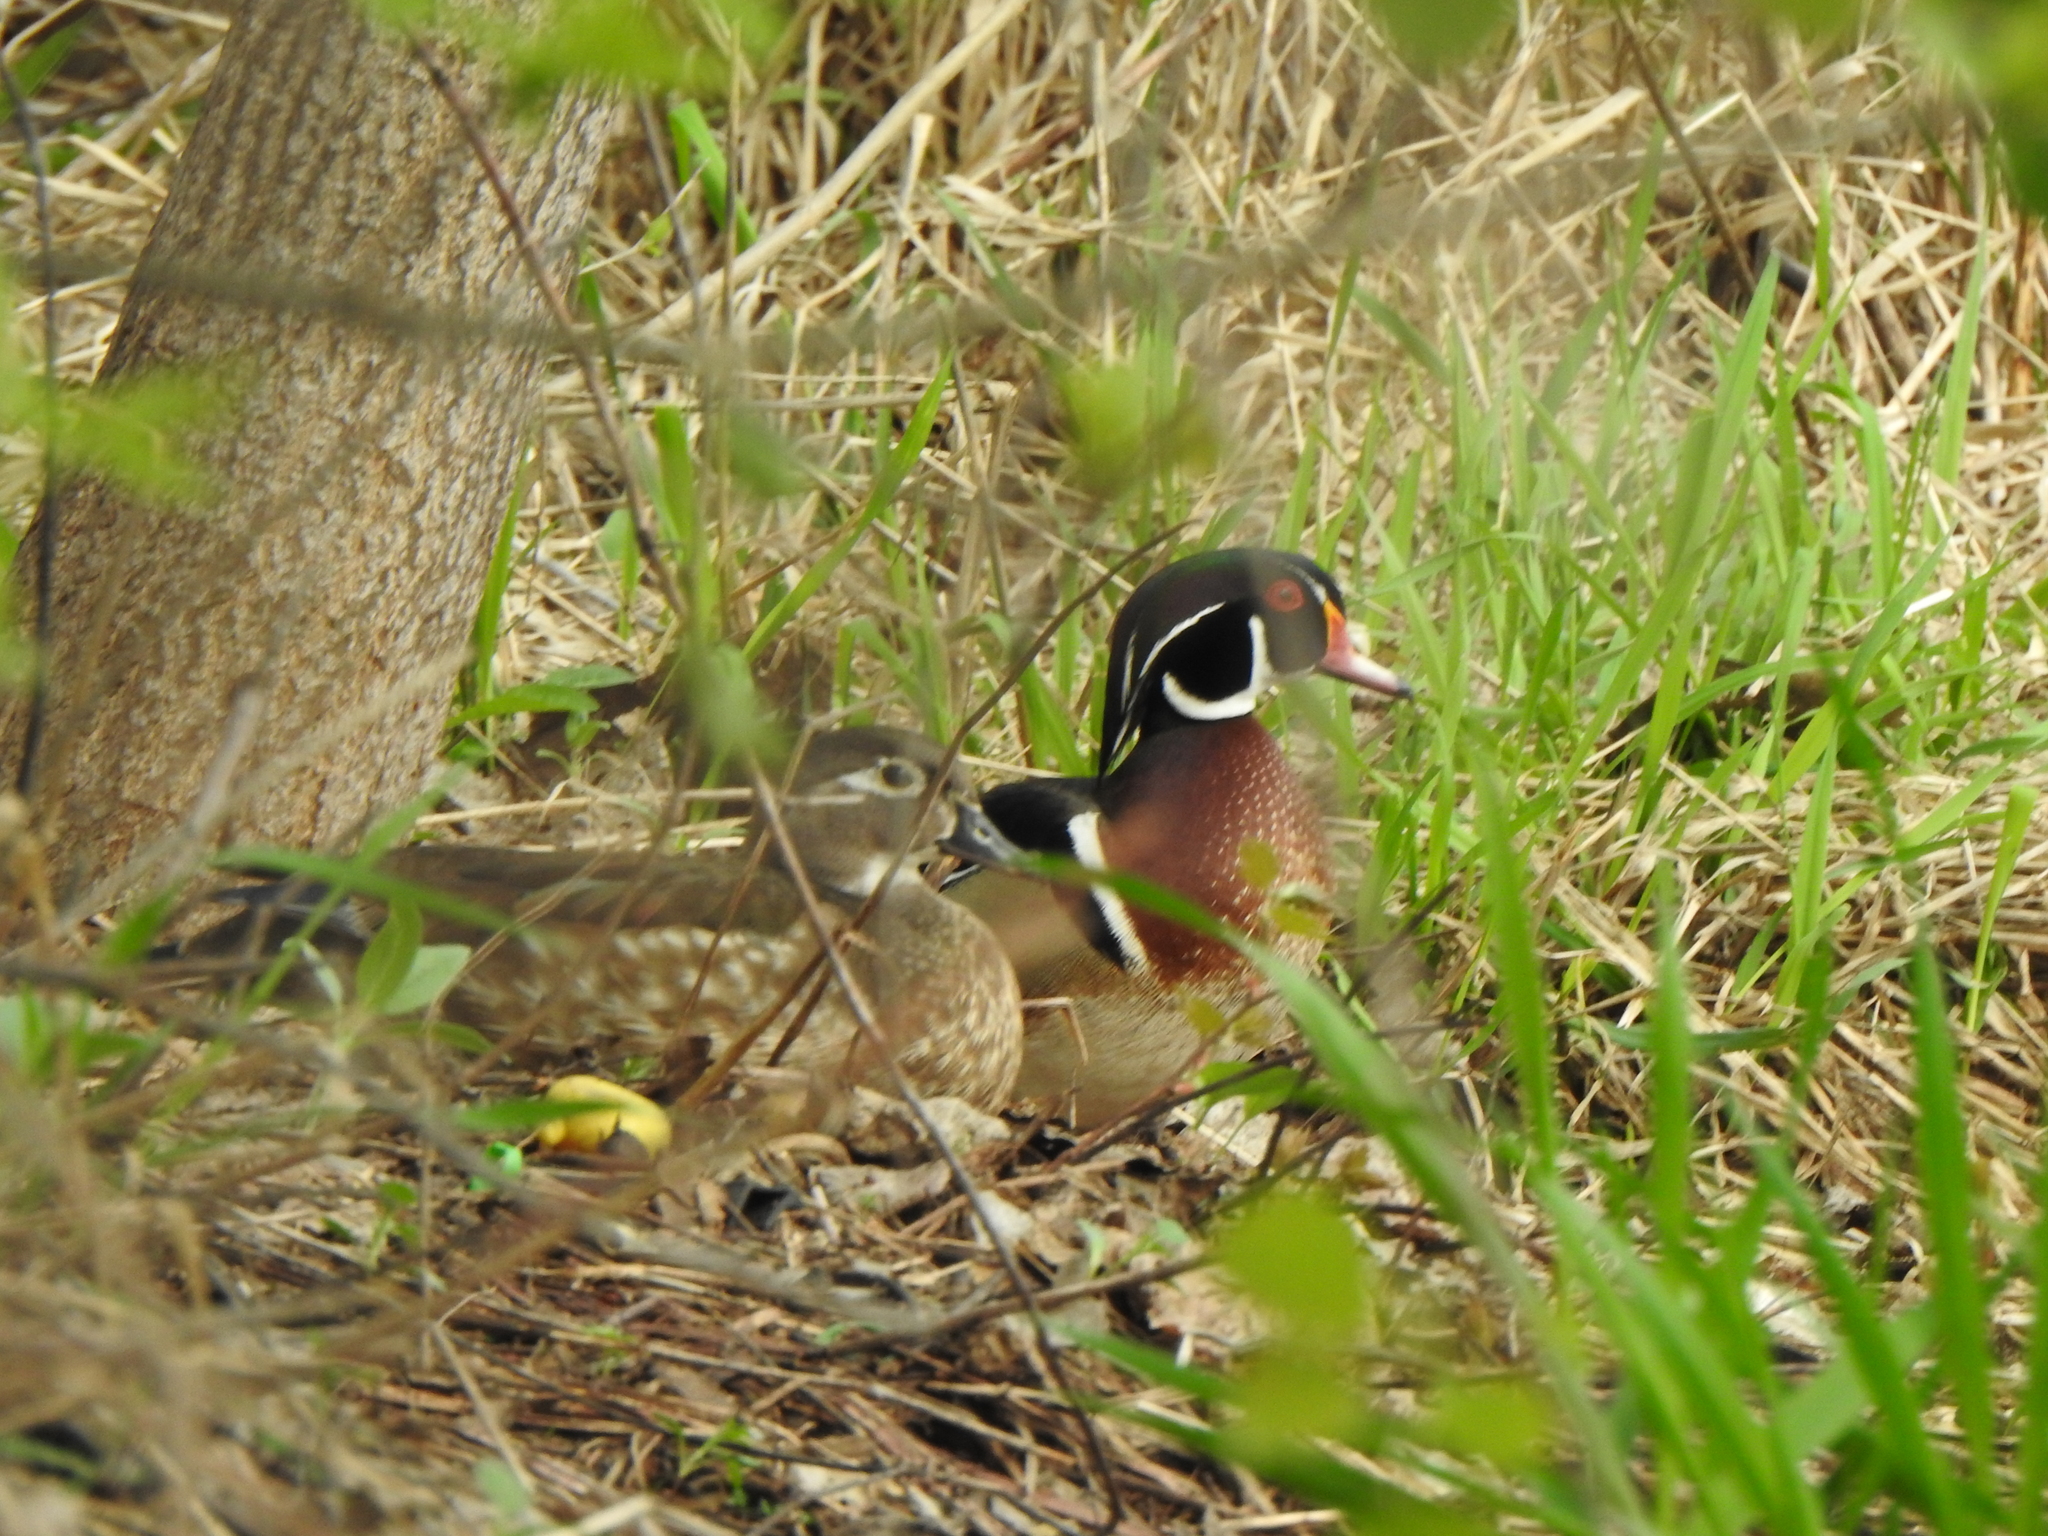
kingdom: Animalia
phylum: Chordata
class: Aves
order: Anseriformes
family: Anatidae
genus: Aix
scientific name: Aix sponsa
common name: Wood duck
